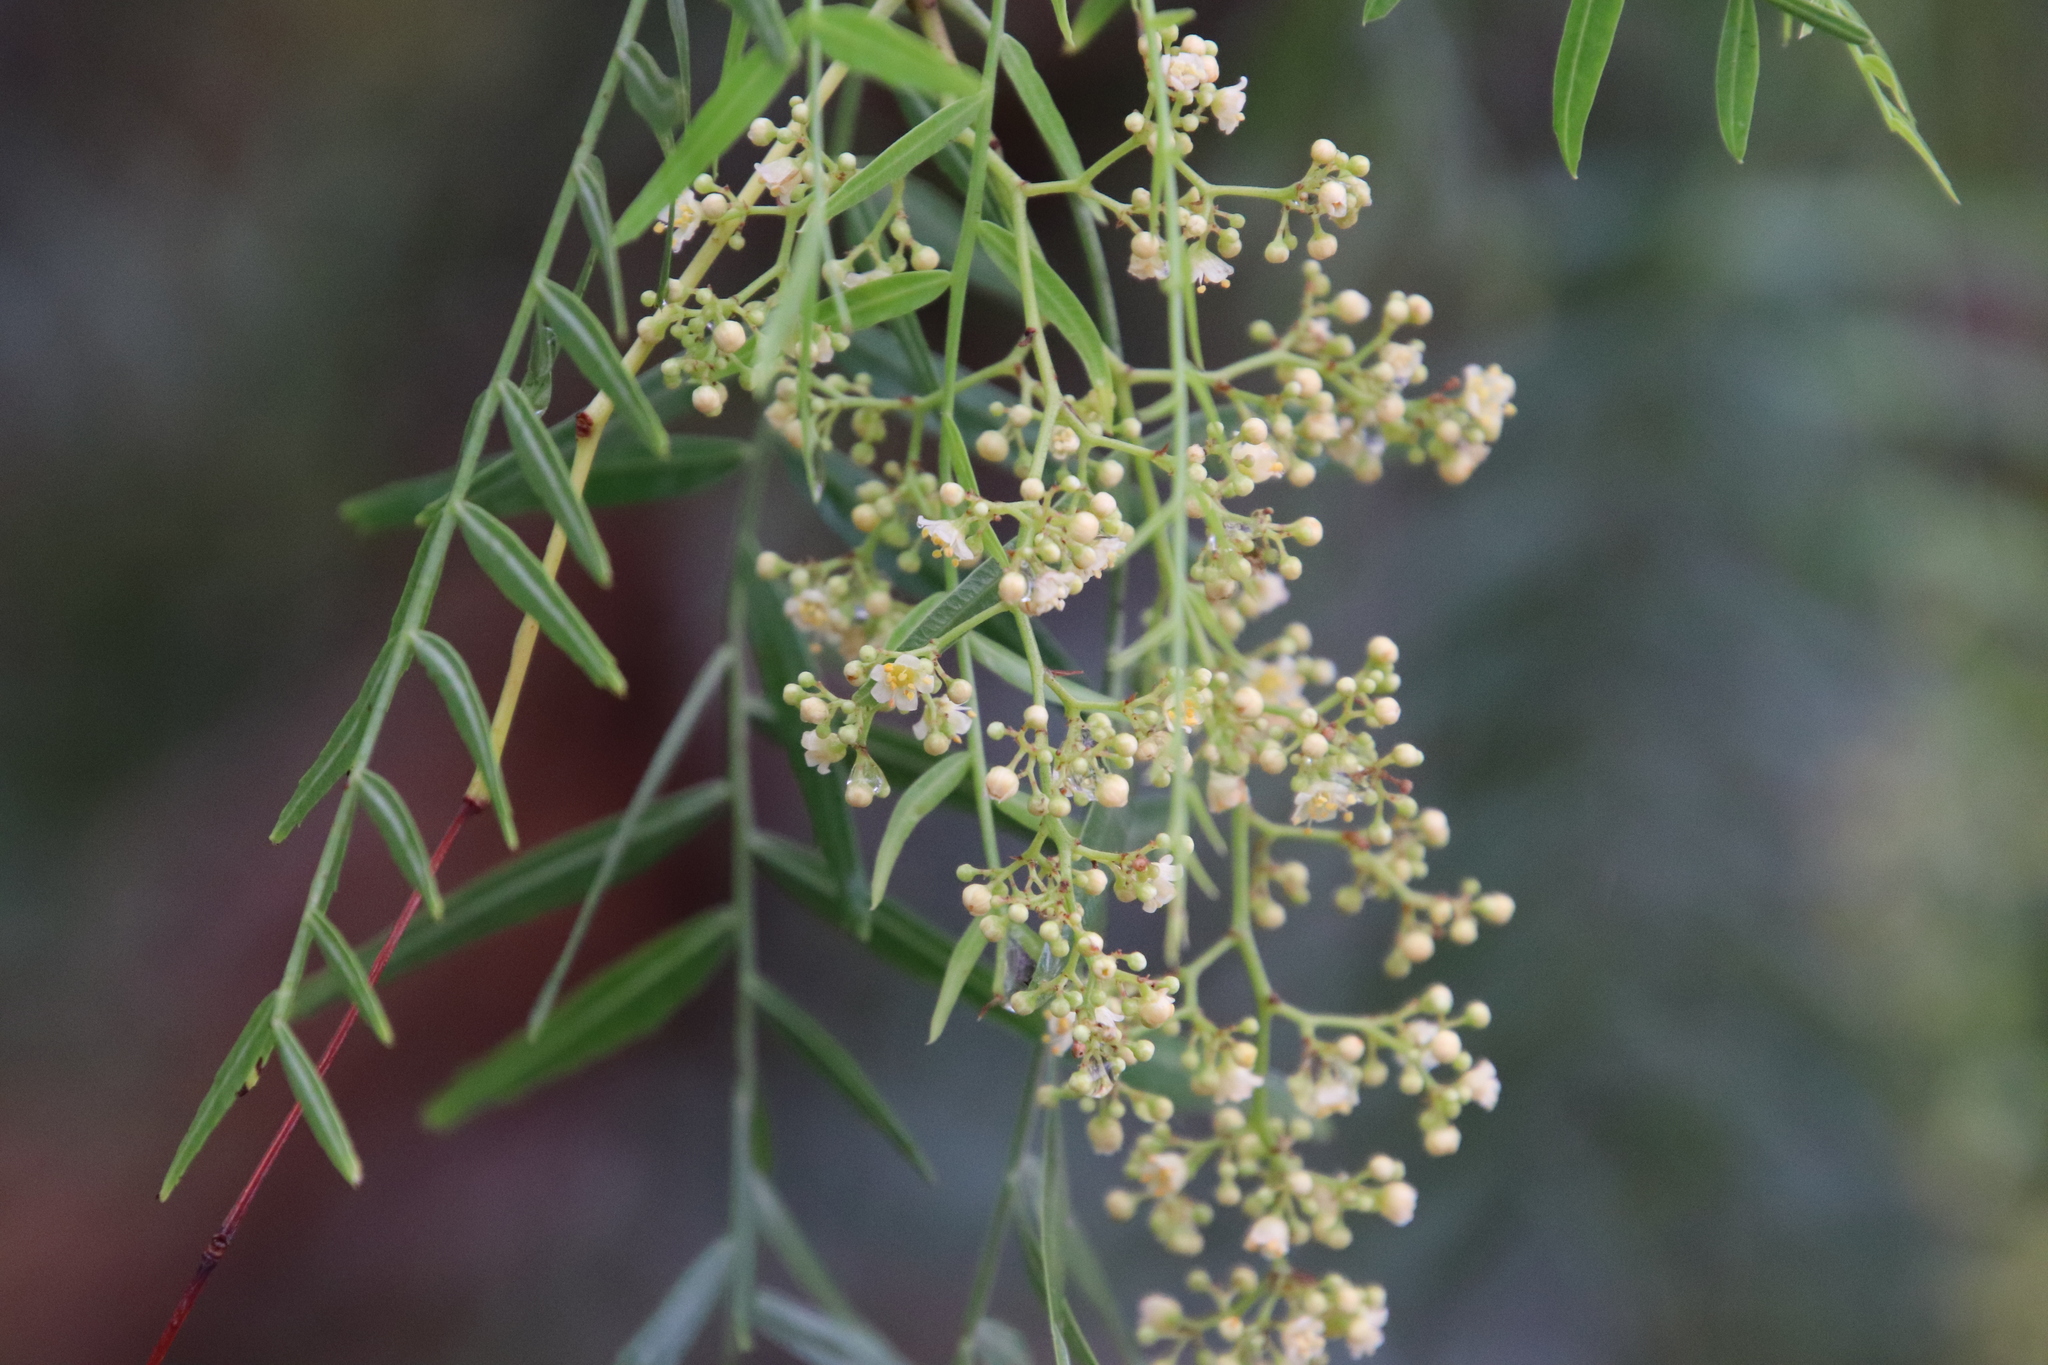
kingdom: Plantae
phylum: Tracheophyta
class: Magnoliopsida
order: Sapindales
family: Anacardiaceae
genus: Schinus
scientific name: Schinus molle
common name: Peruvian peppertree
